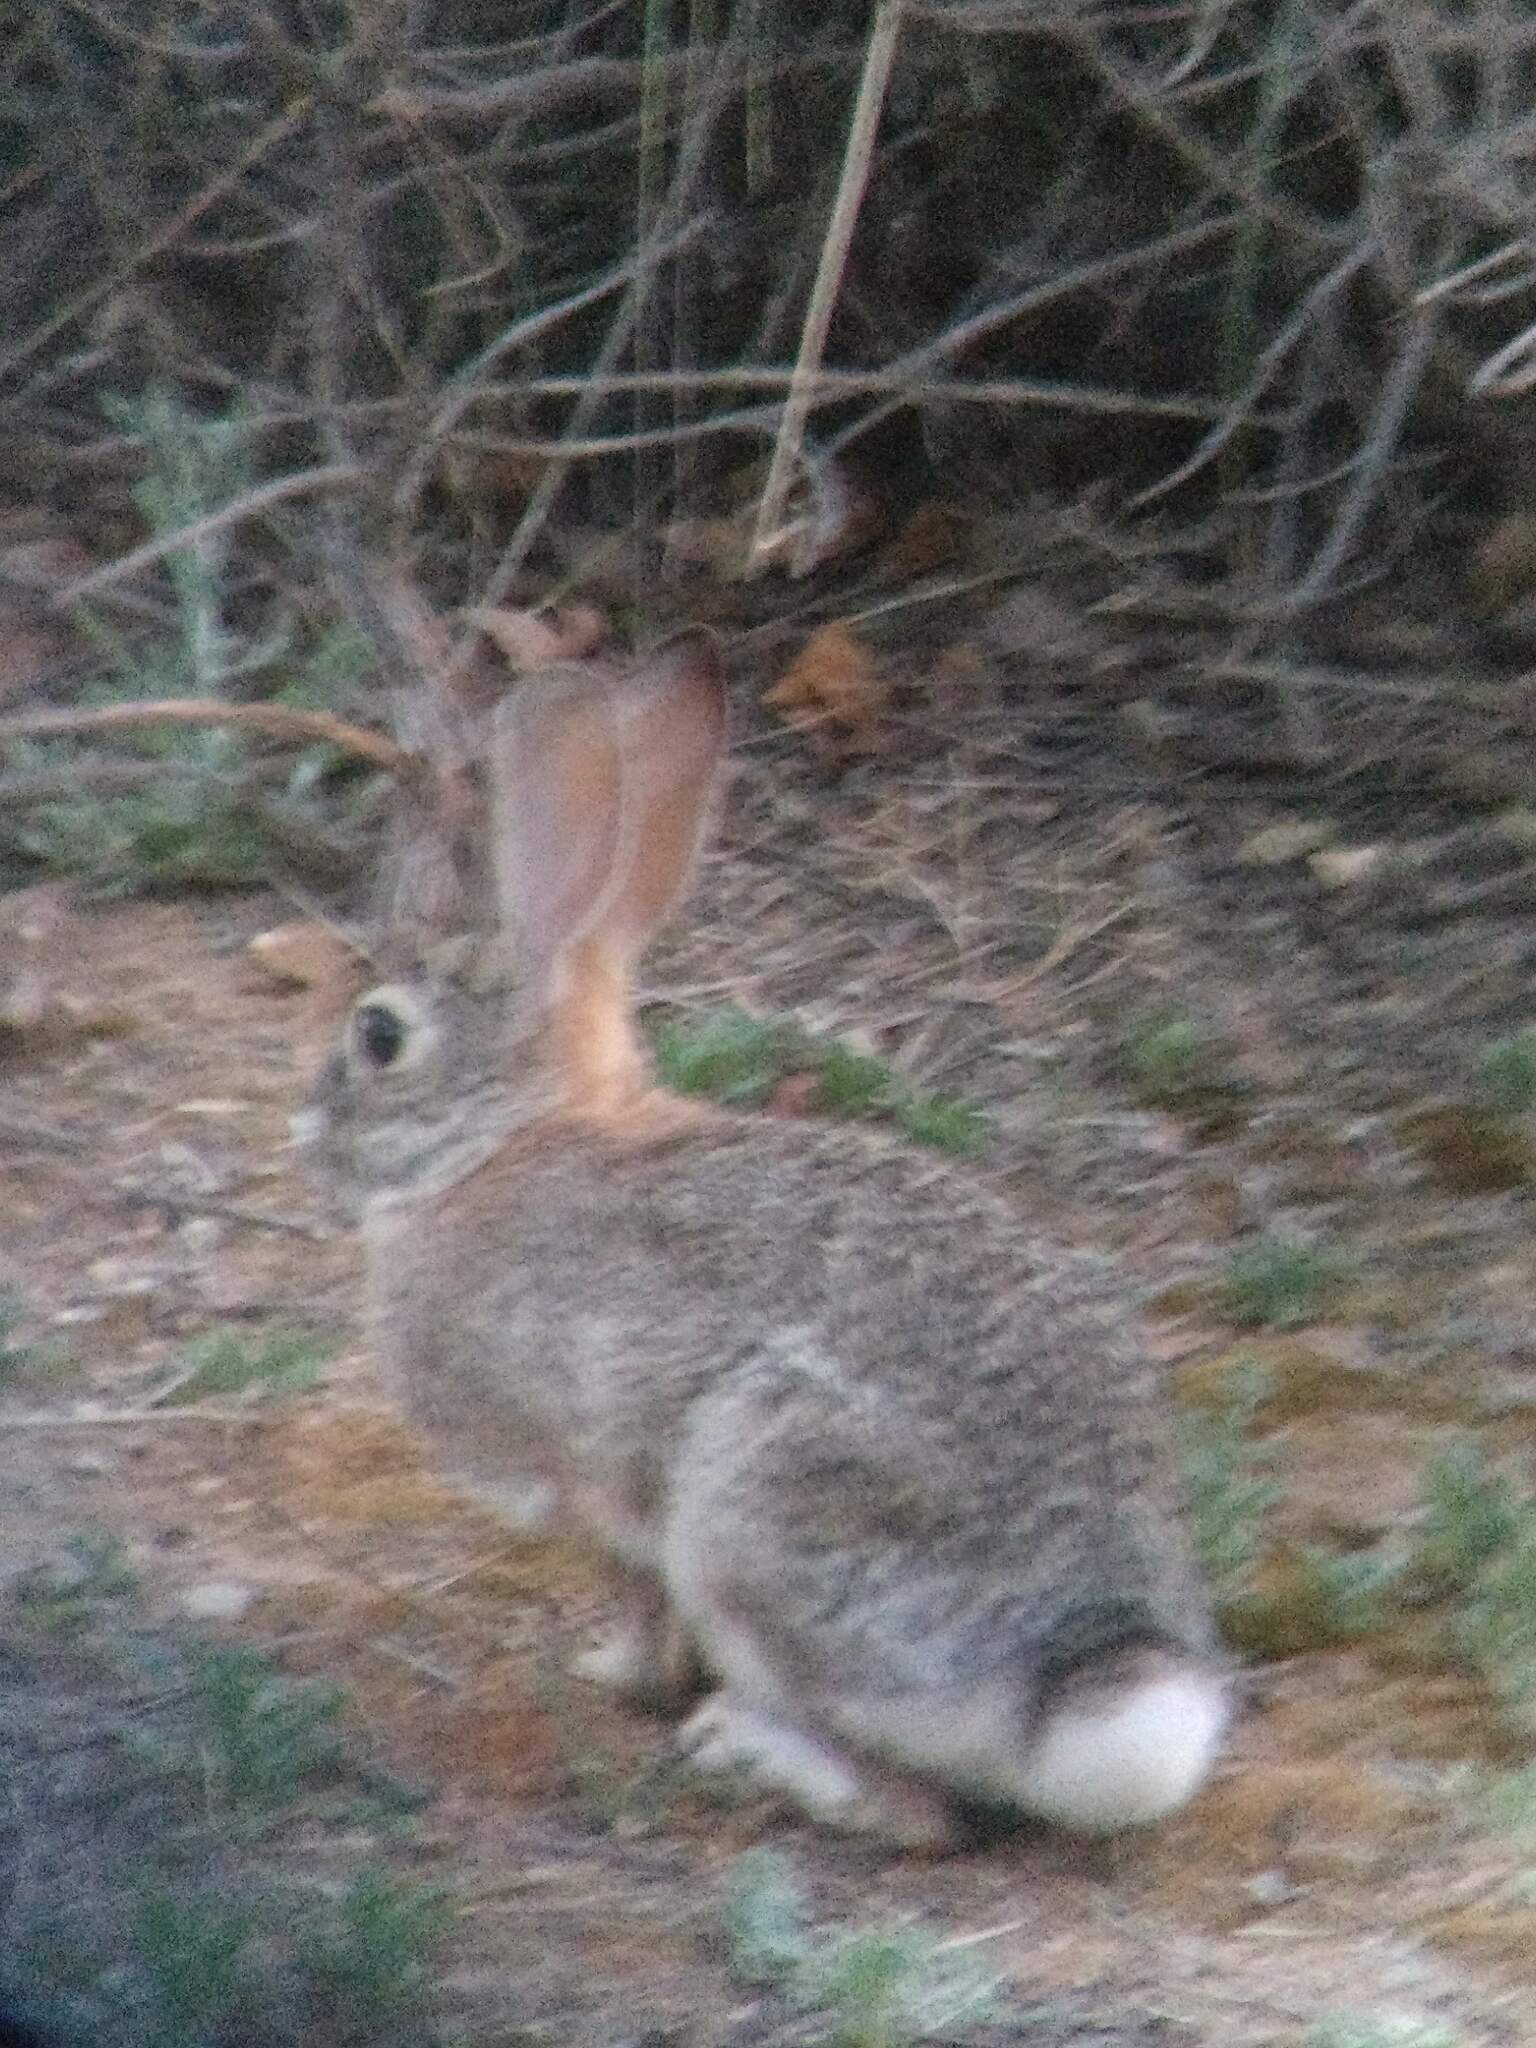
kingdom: Animalia
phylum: Chordata
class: Mammalia
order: Lagomorpha
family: Leporidae
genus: Sylvilagus
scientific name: Sylvilagus audubonii
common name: Desert cottontail
